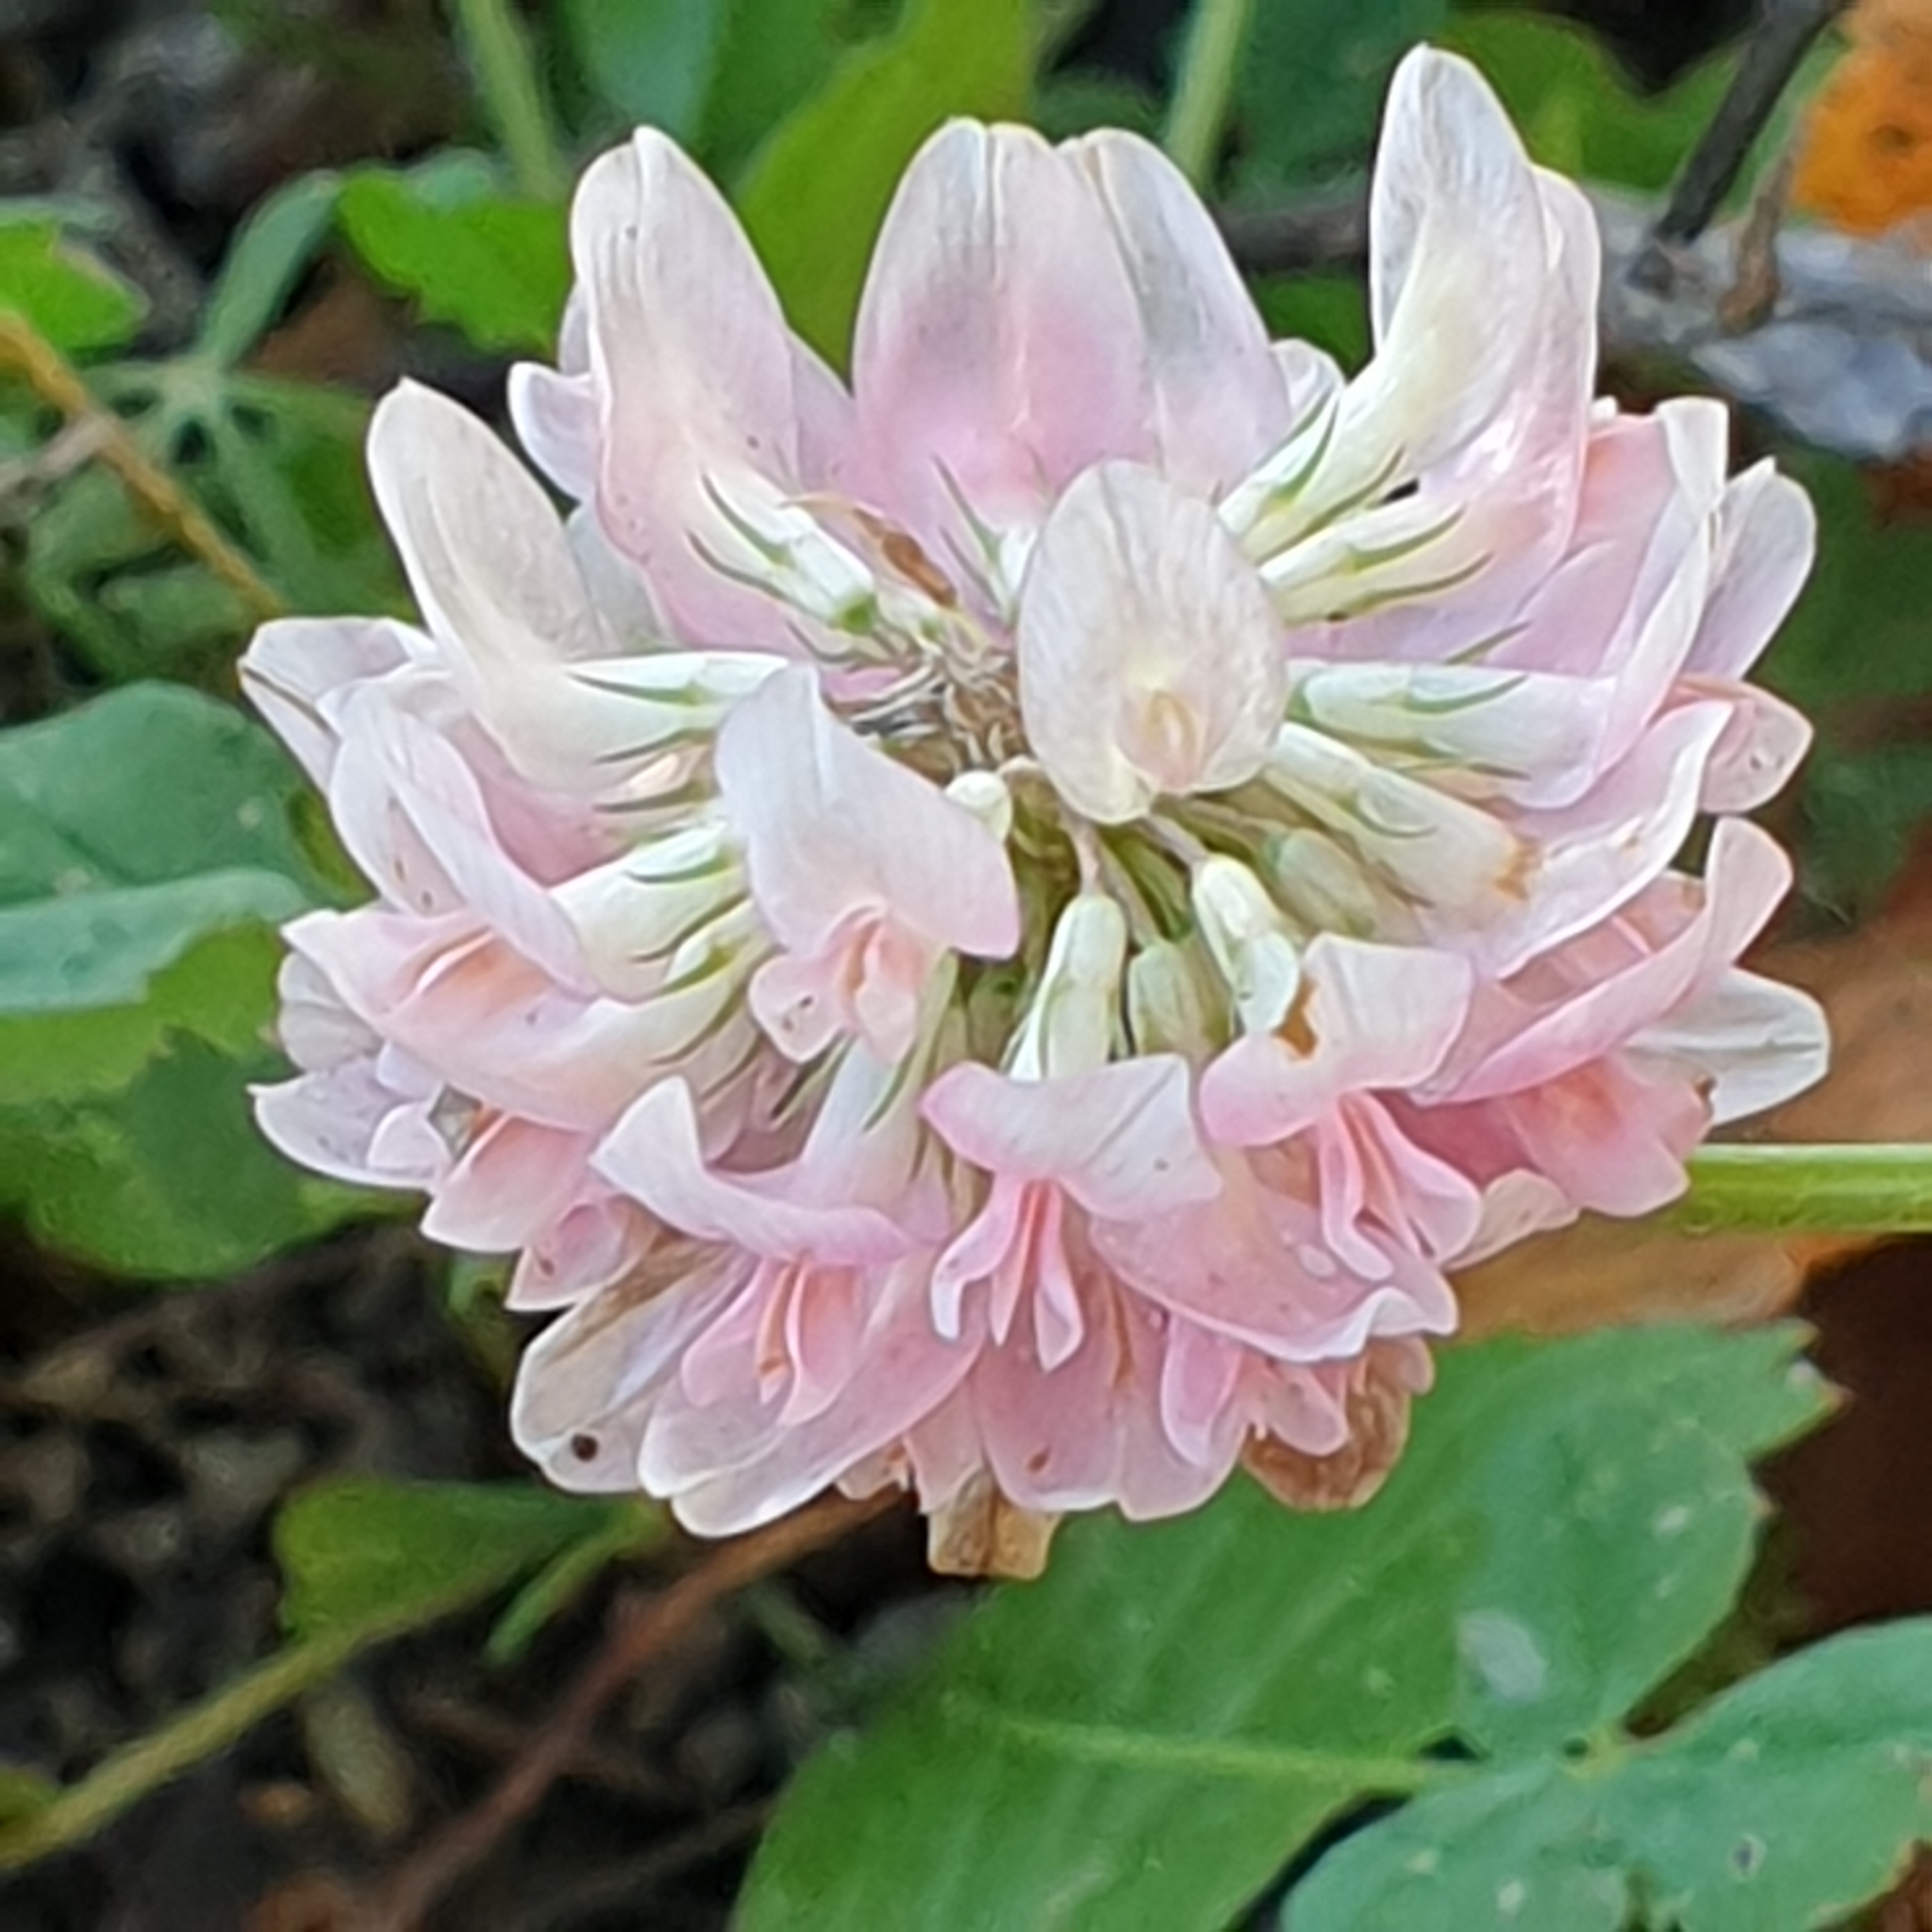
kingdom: Plantae
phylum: Tracheophyta
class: Magnoliopsida
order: Fabales
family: Fabaceae
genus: Trifolium
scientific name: Trifolium hybridum
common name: Alsike clover
